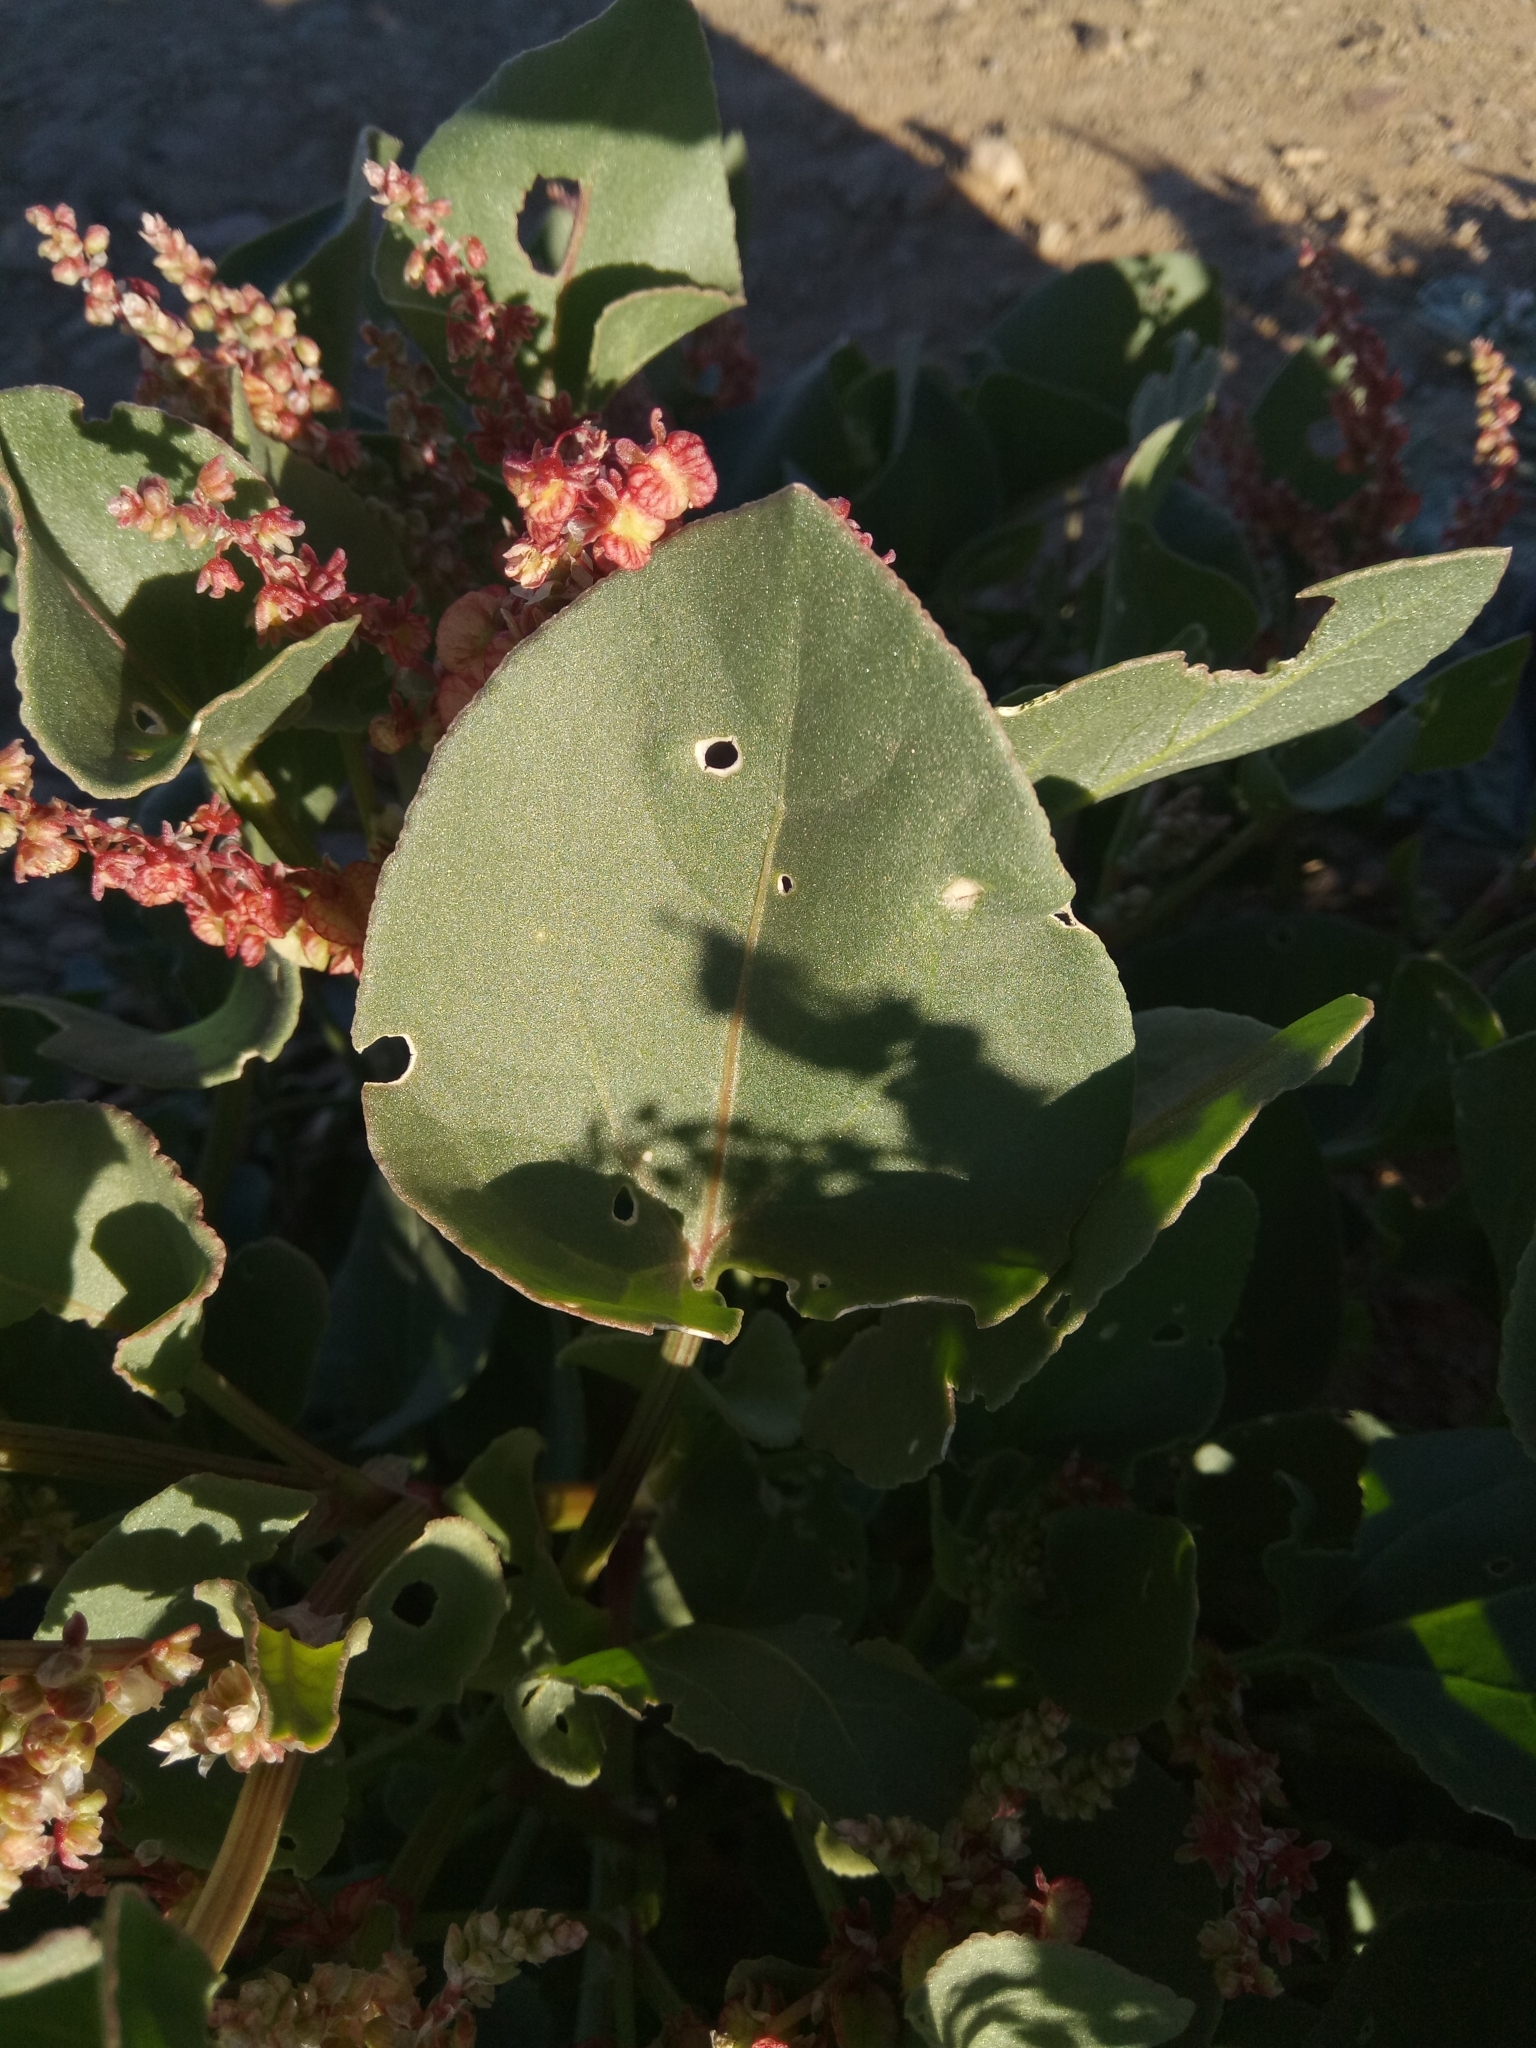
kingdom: Plantae
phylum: Tracheophyta
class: Magnoliopsida
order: Caryophyllales
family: Polygonaceae
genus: Rumex
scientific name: Rumex vesicarius
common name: Bladder dock
